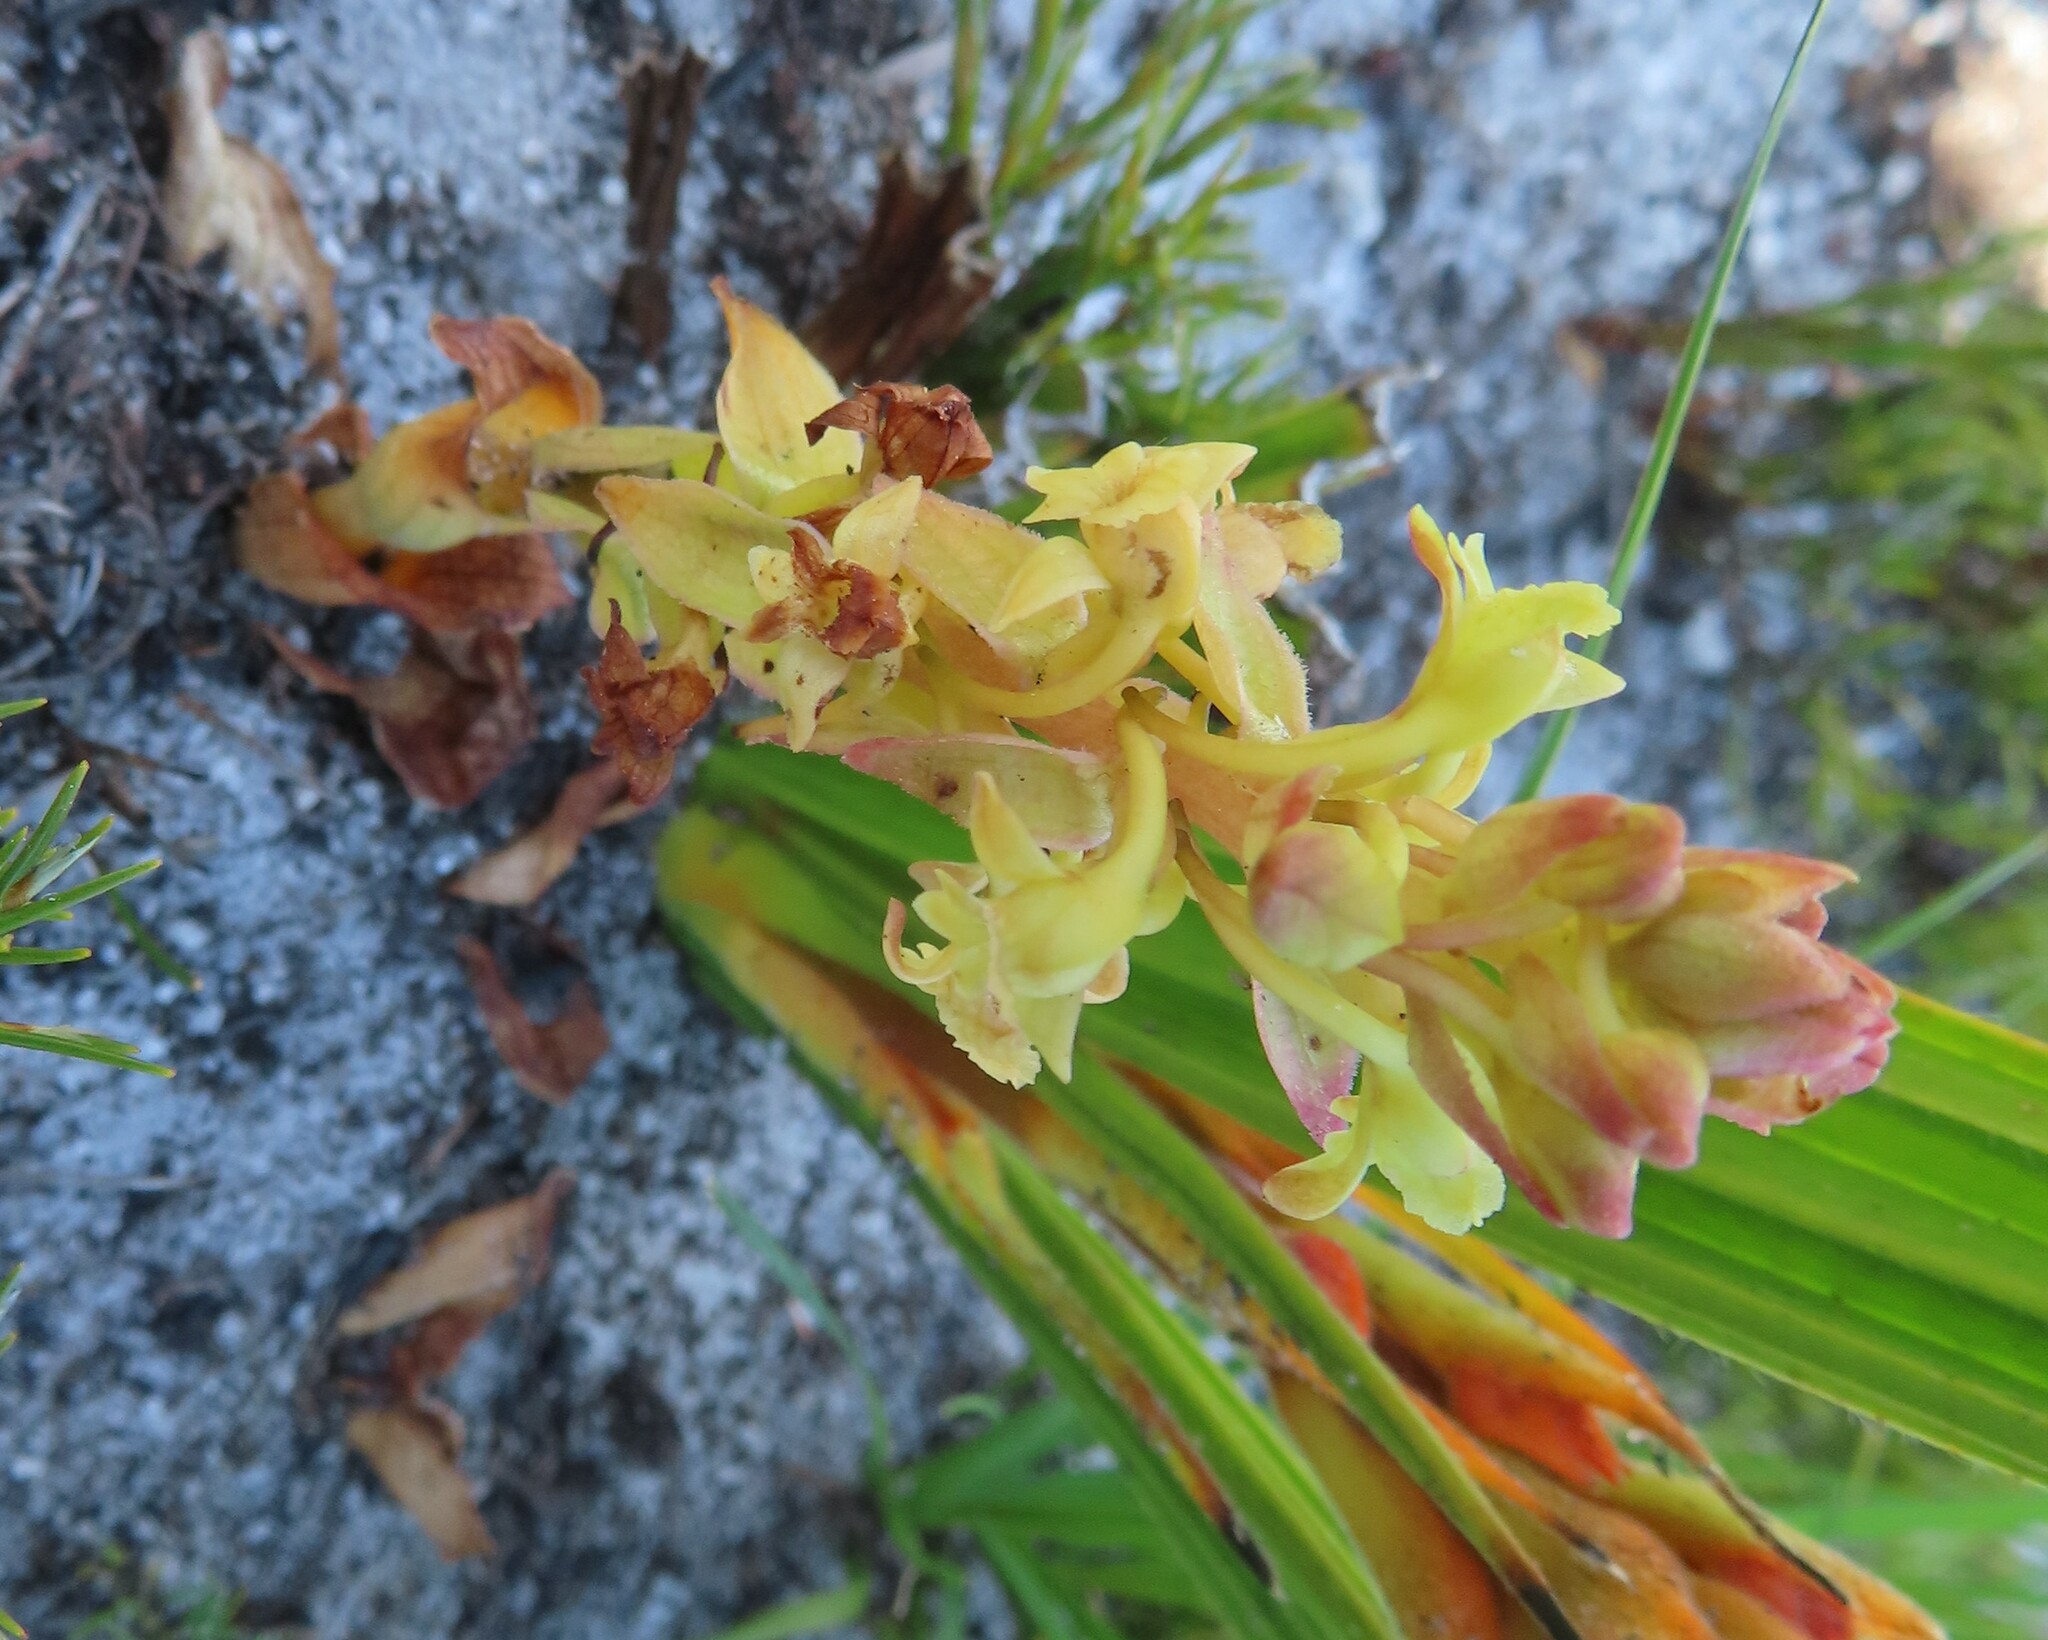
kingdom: Plantae
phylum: Tracheophyta
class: Liliopsida
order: Asparagales
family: Orchidaceae
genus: Satyrium
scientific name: Satyrium humile
